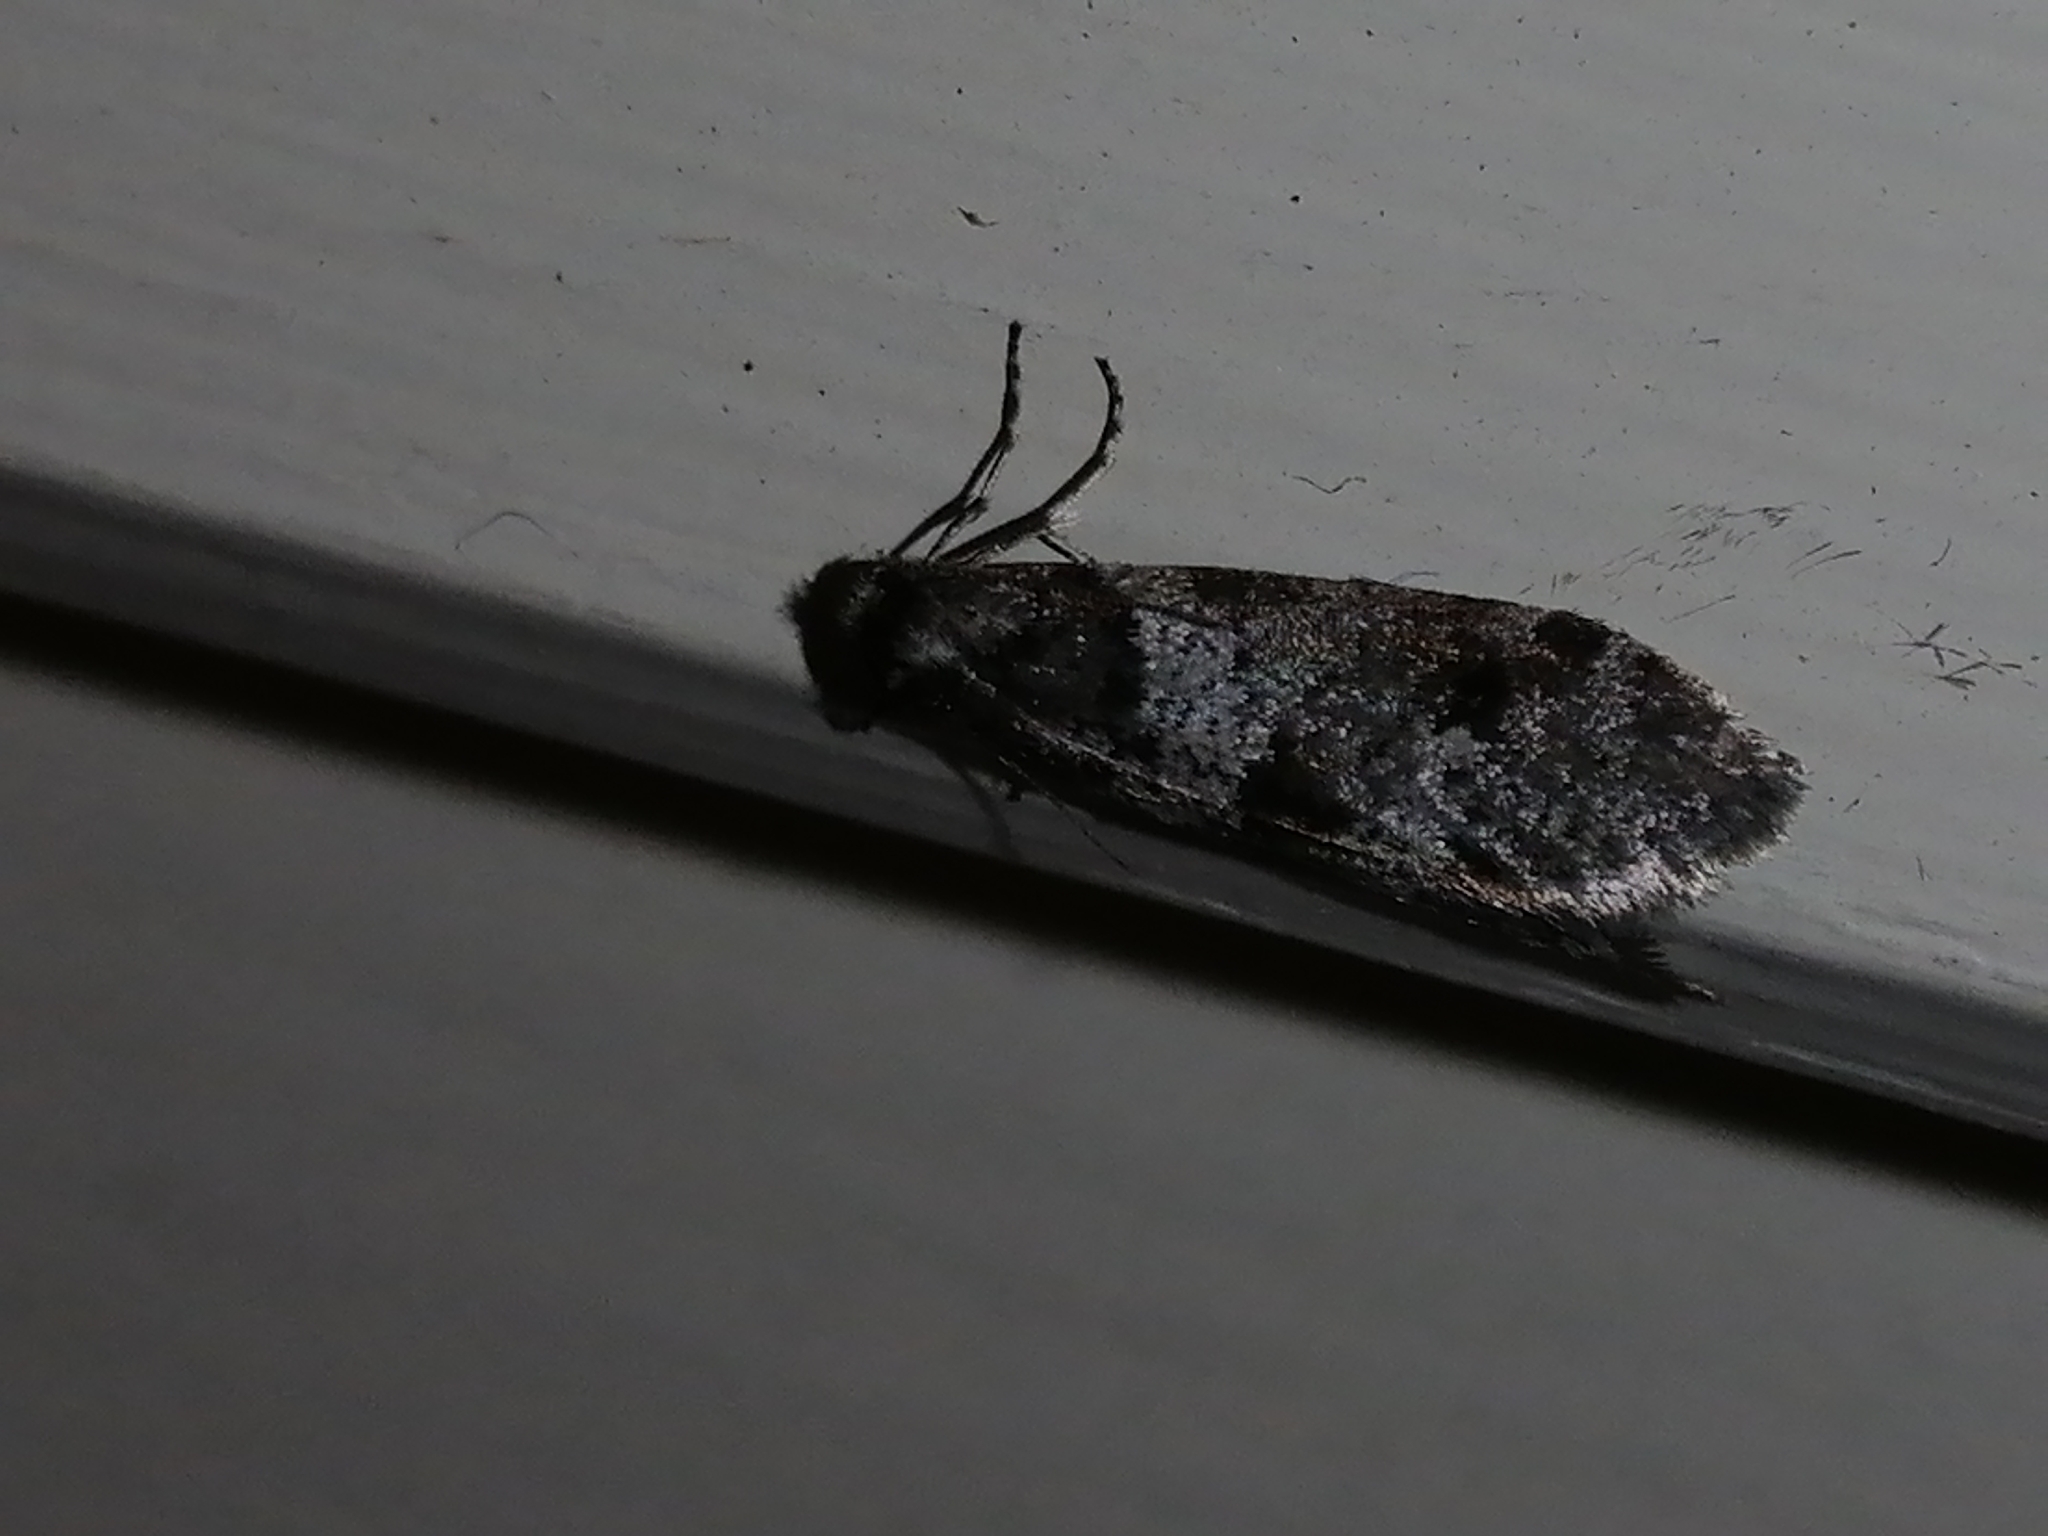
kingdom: Animalia
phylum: Arthropoda
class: Insecta
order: Lepidoptera
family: Psychidae
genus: Lepidoscia
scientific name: Lepidoscia heliochares
